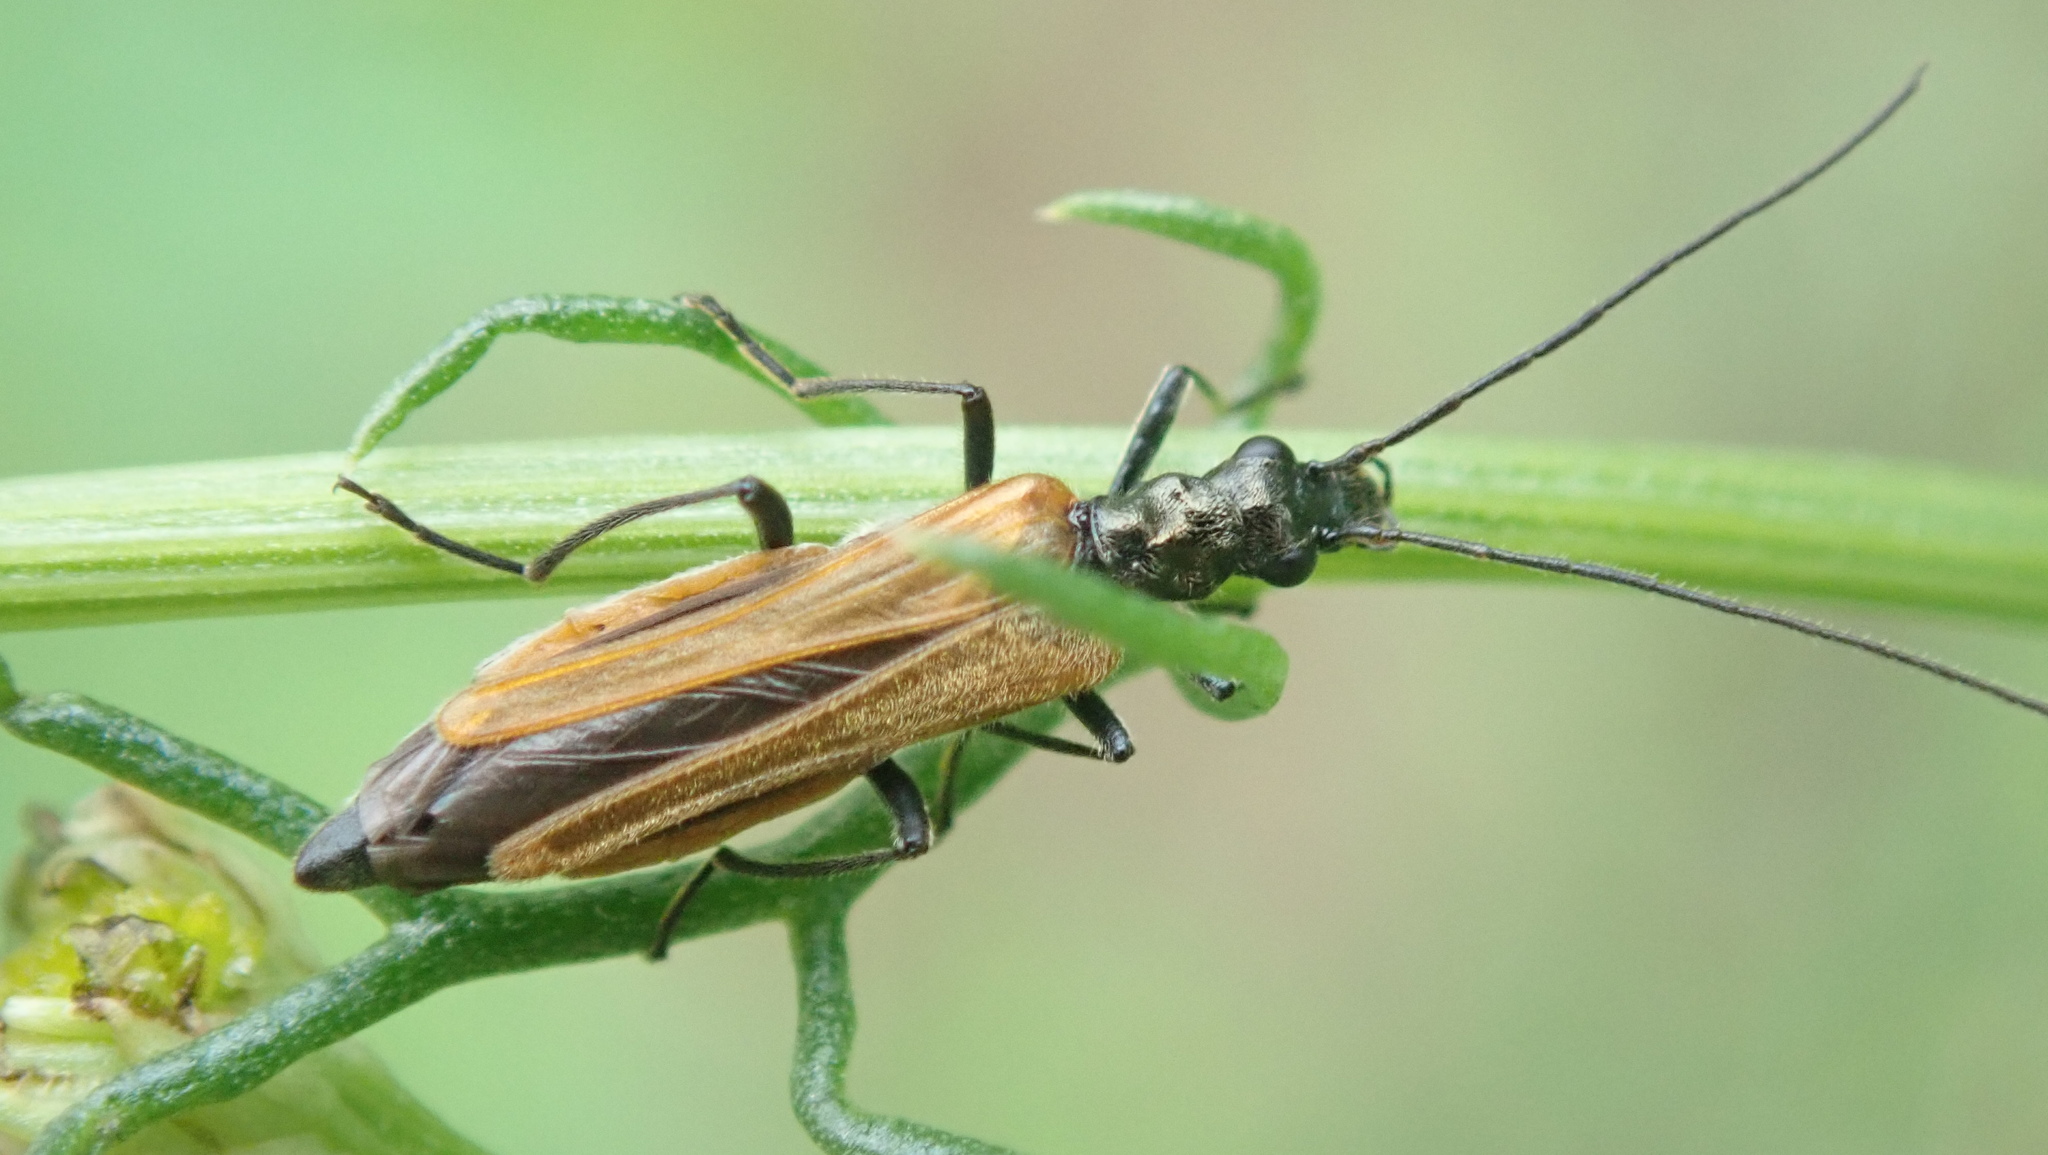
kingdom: Animalia
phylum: Arthropoda
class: Insecta
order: Coleoptera
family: Oedemeridae
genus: Oedemera
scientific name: Oedemera femorata
